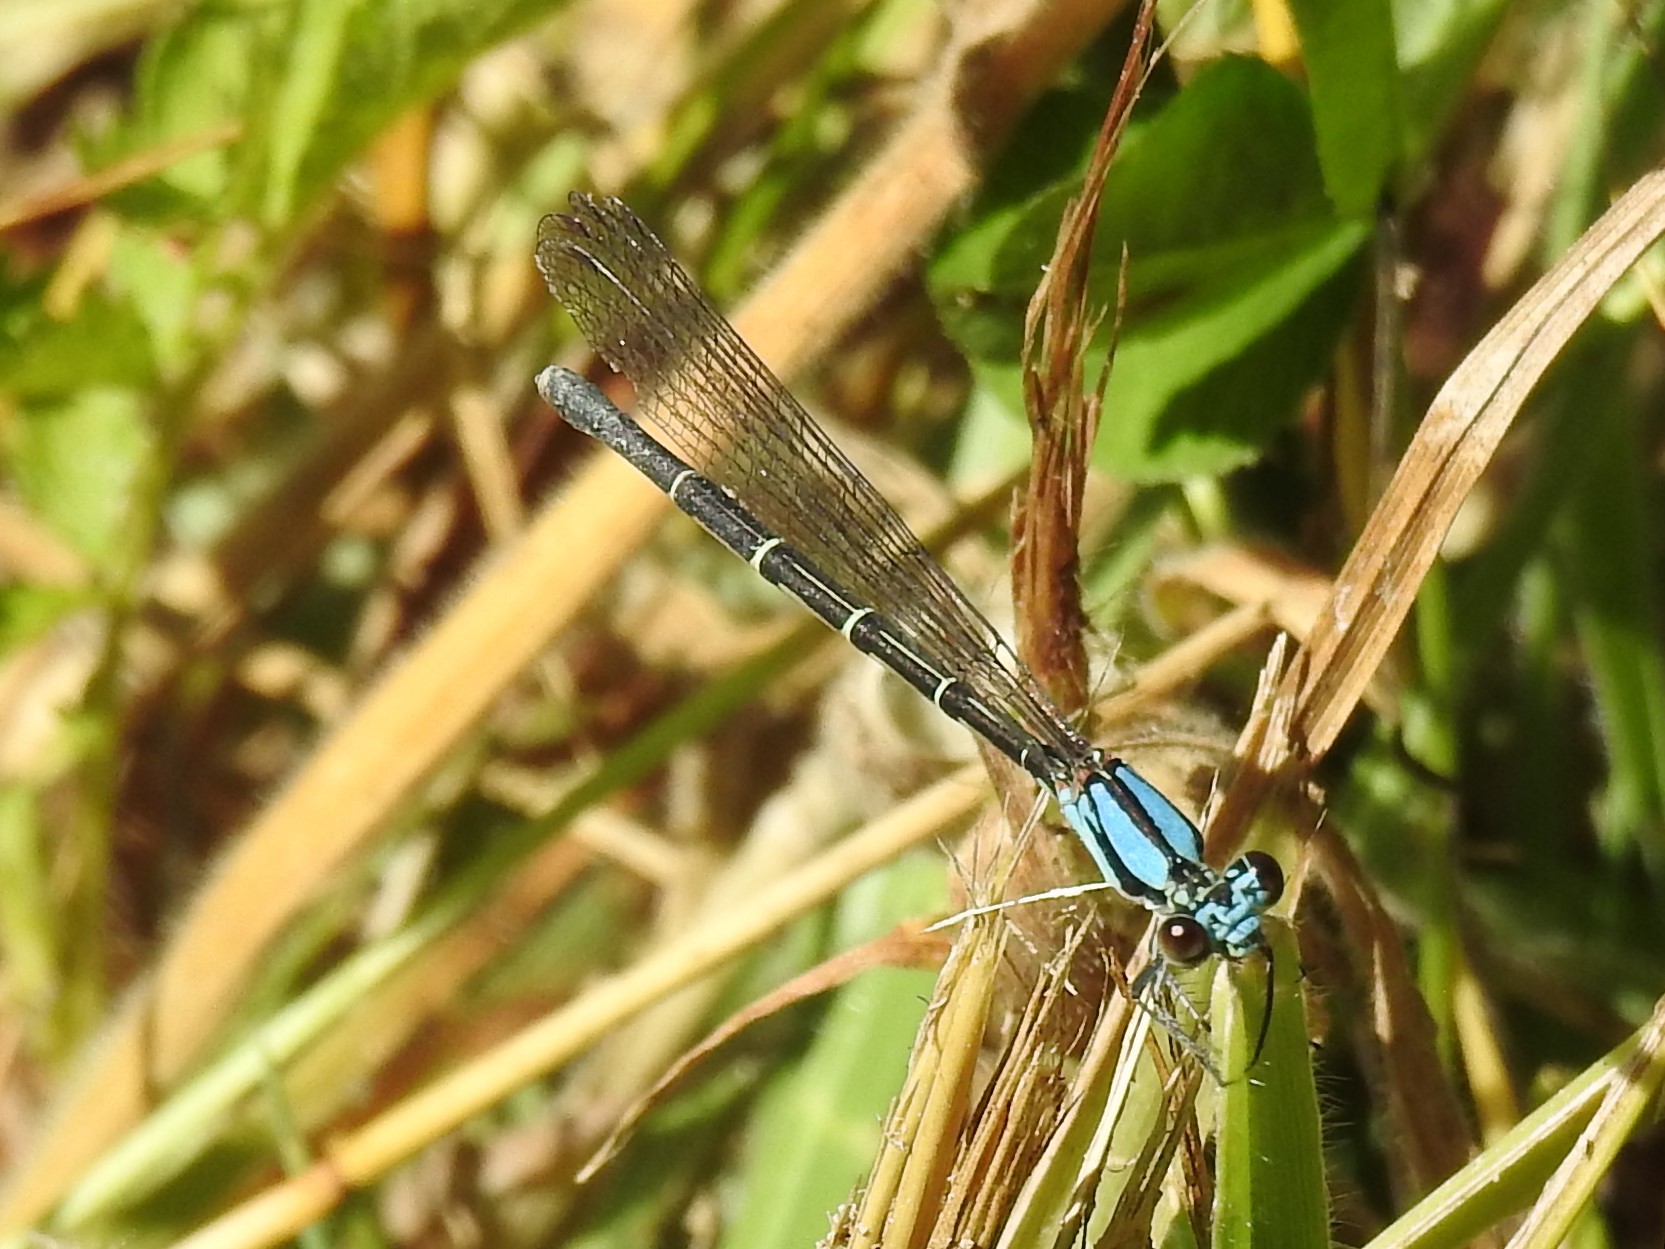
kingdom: Animalia
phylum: Arthropoda
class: Insecta
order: Odonata
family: Coenagrionidae
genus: Argia
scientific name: Argia tibialis
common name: Blue-tipped dancer
